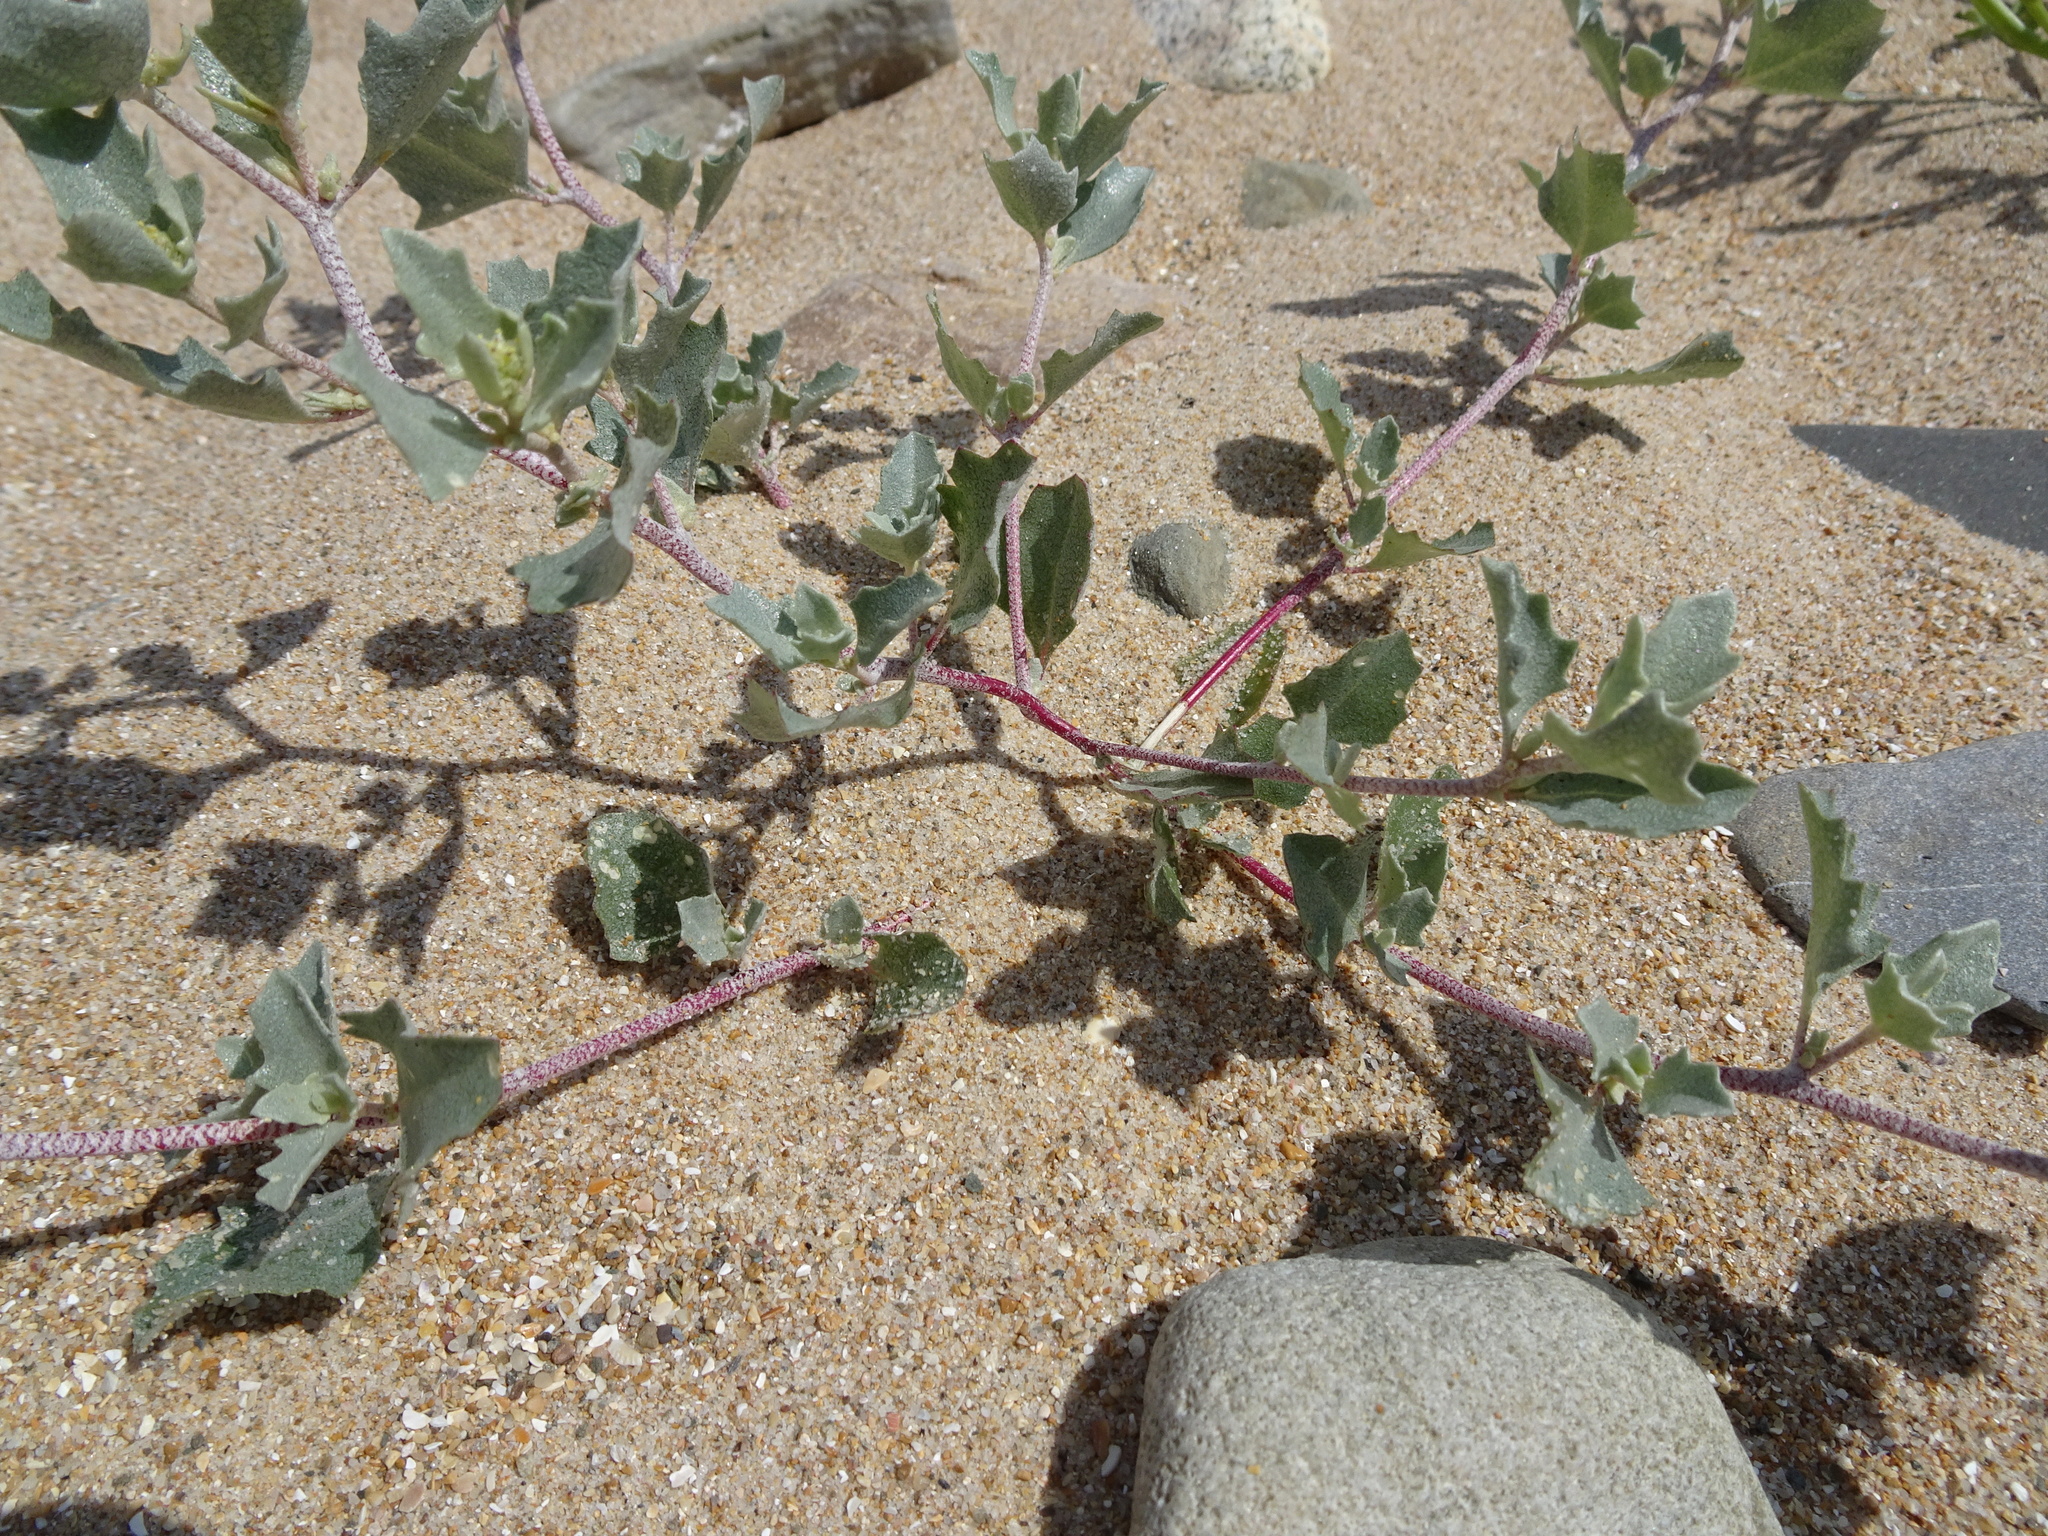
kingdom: Plantae
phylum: Tracheophyta
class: Magnoliopsida
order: Caryophyllales
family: Amaranthaceae
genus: Atriplex
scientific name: Atriplex laciniata
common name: Frosted orache
